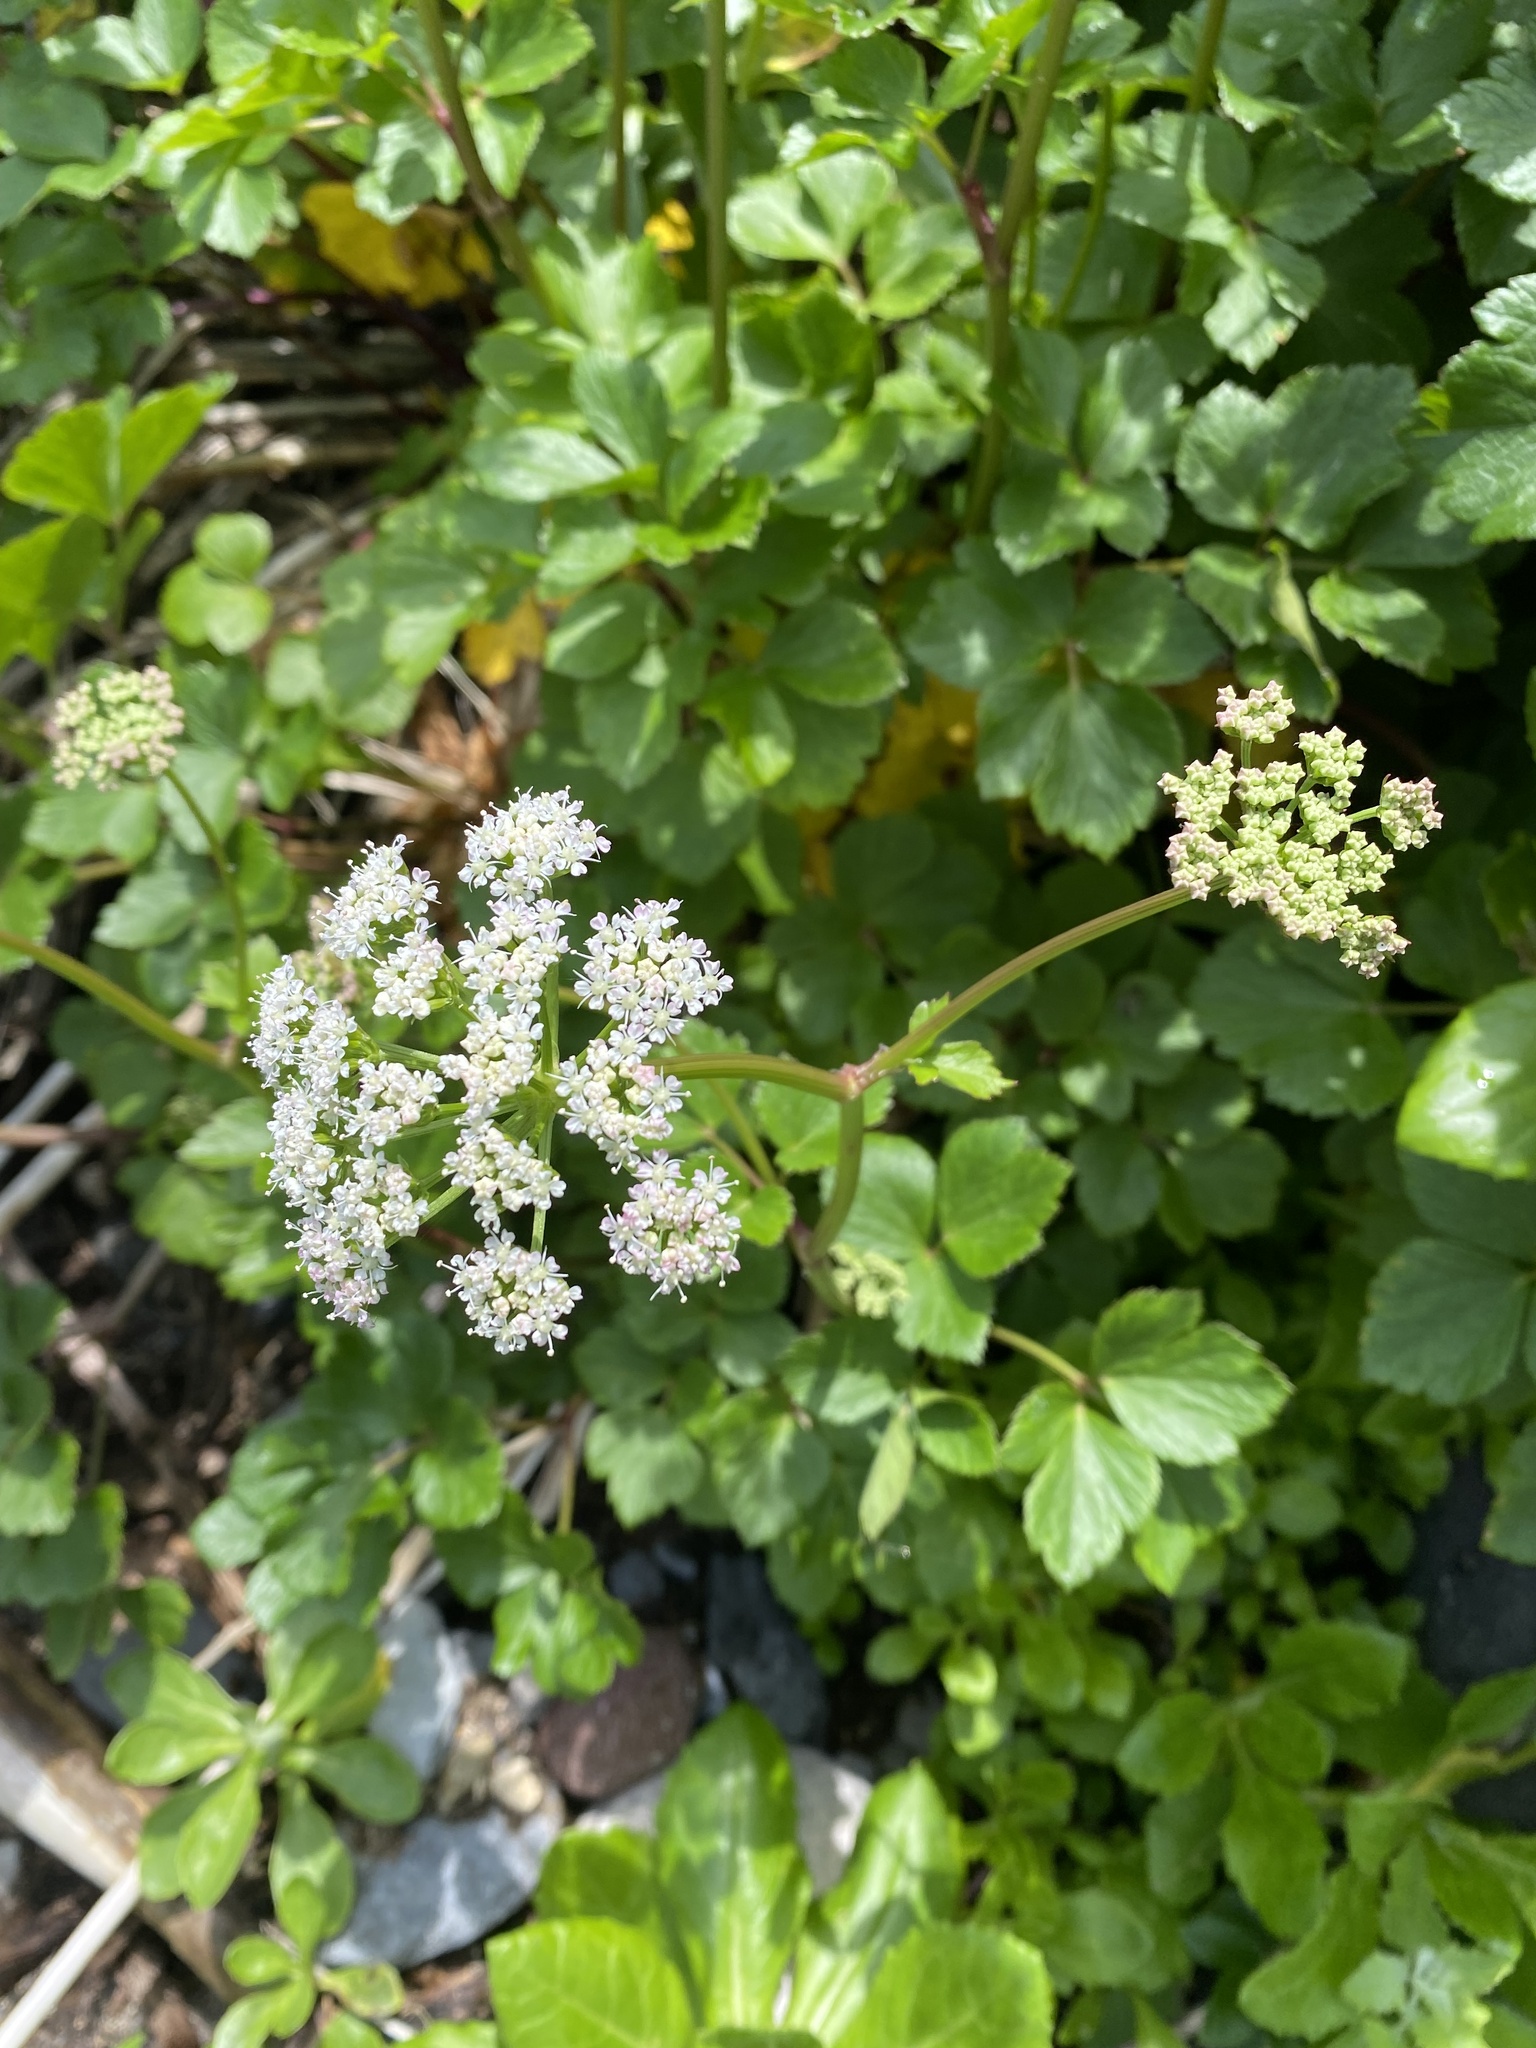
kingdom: Plantae
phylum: Tracheophyta
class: Magnoliopsida
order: Apiales
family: Apiaceae
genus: Ligusticum
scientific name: Ligusticum scothicum
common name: Beach lovage
